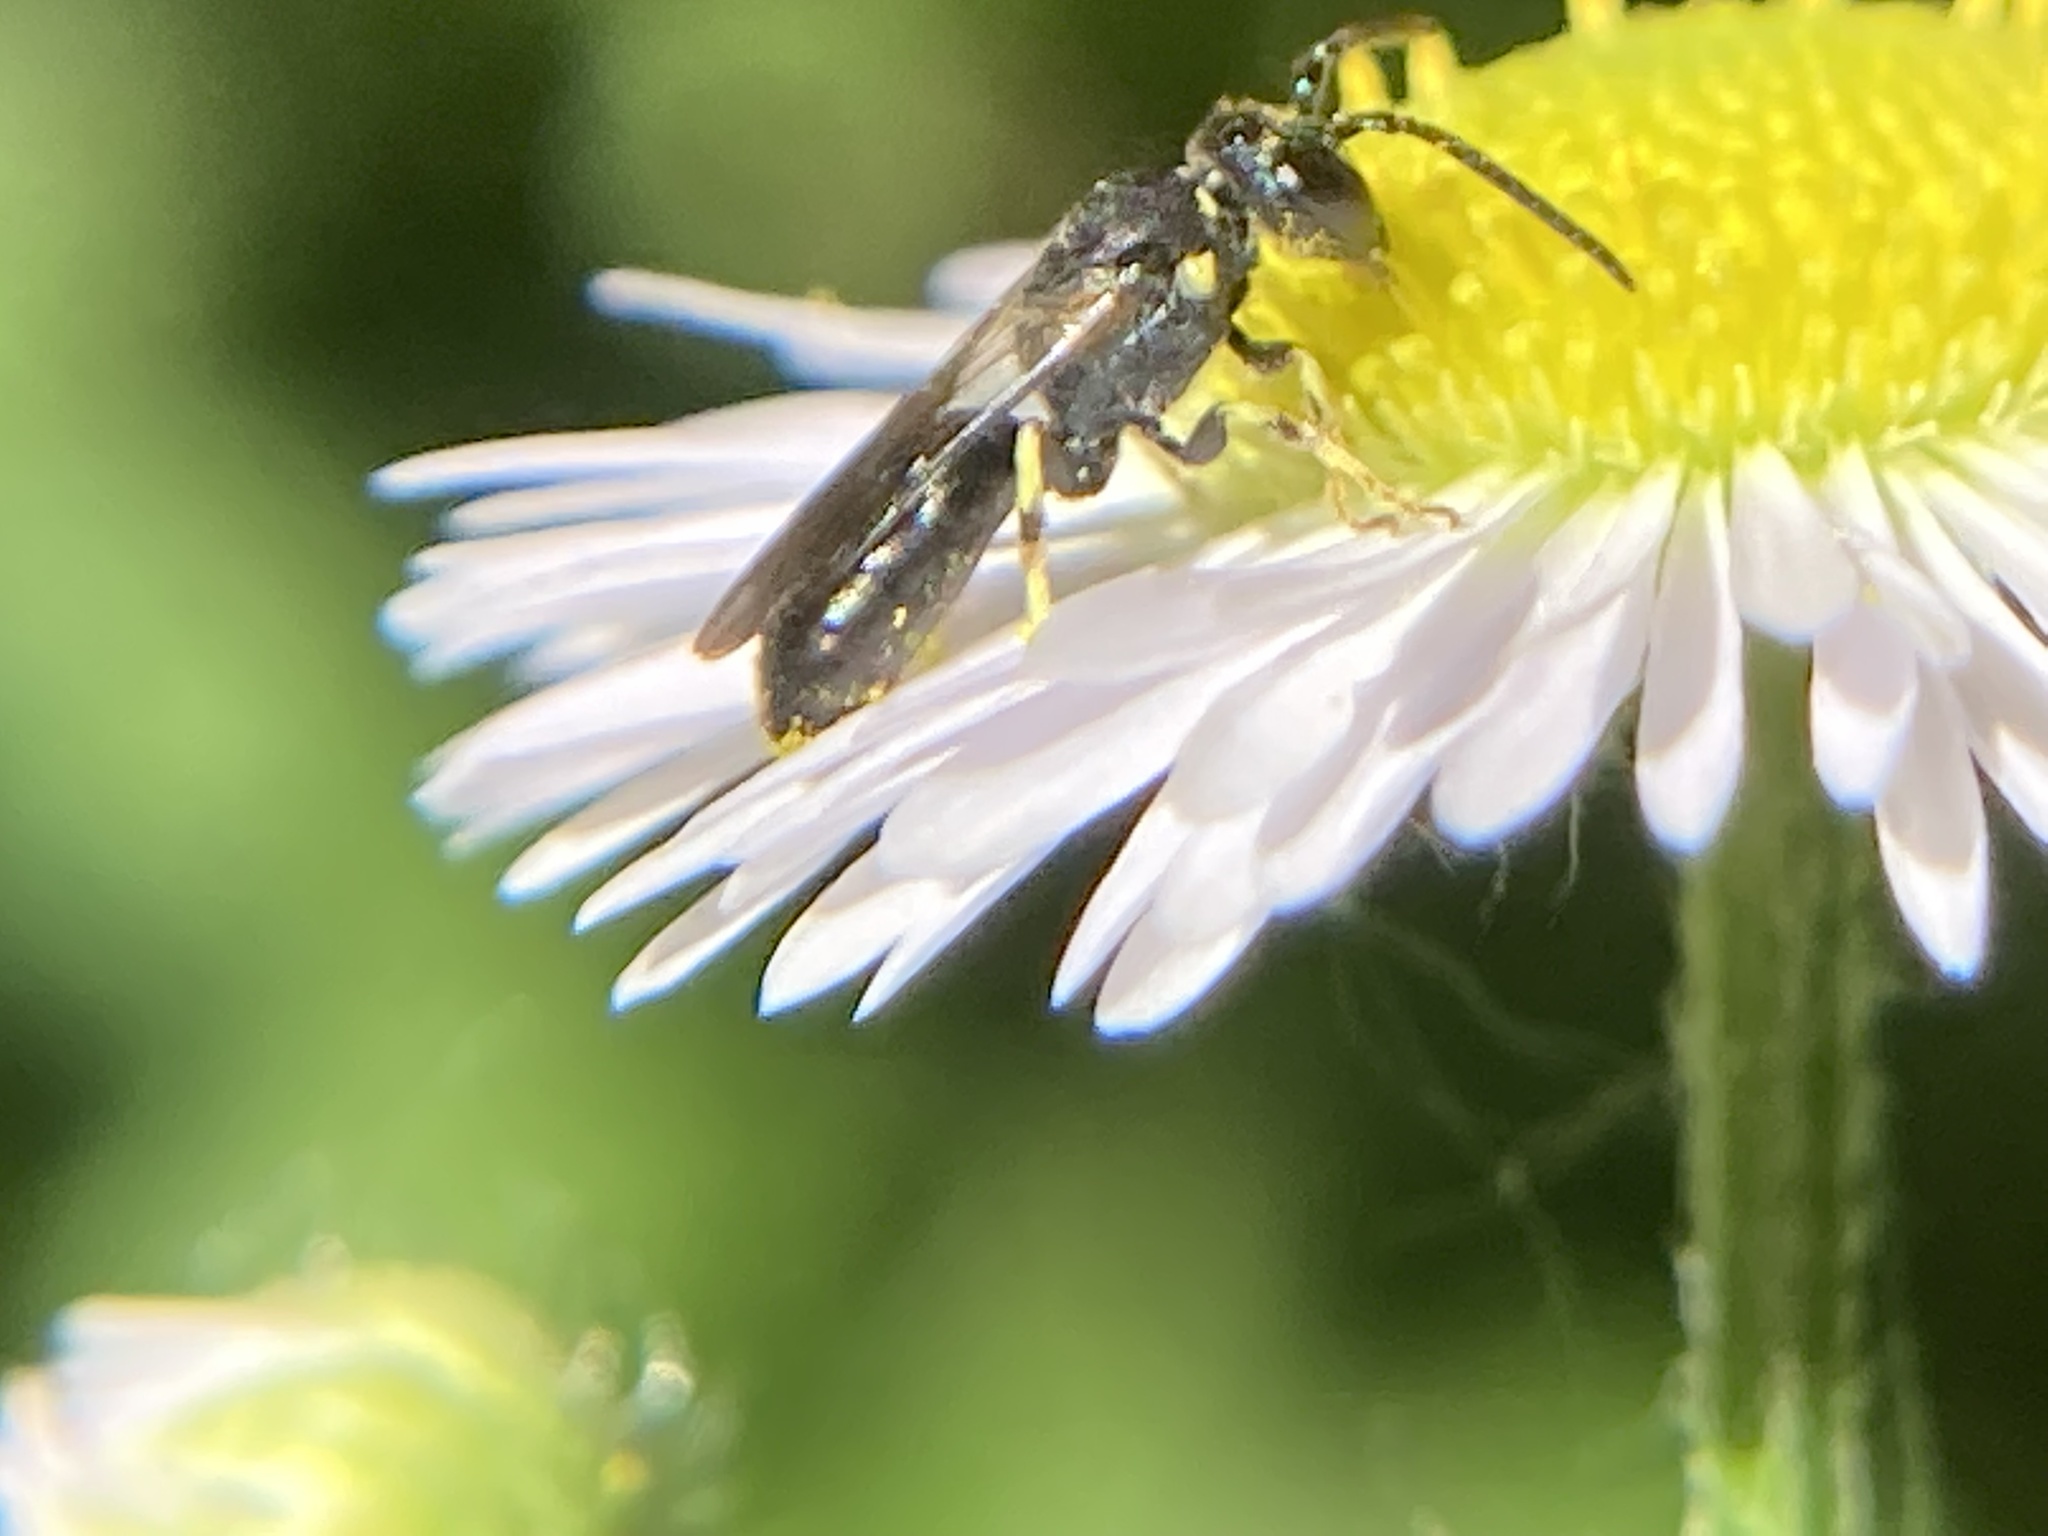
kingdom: Animalia
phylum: Arthropoda
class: Insecta
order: Hymenoptera
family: Colletidae
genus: Hylaeus
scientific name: Hylaeus modestus
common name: Yellow-faced bee
